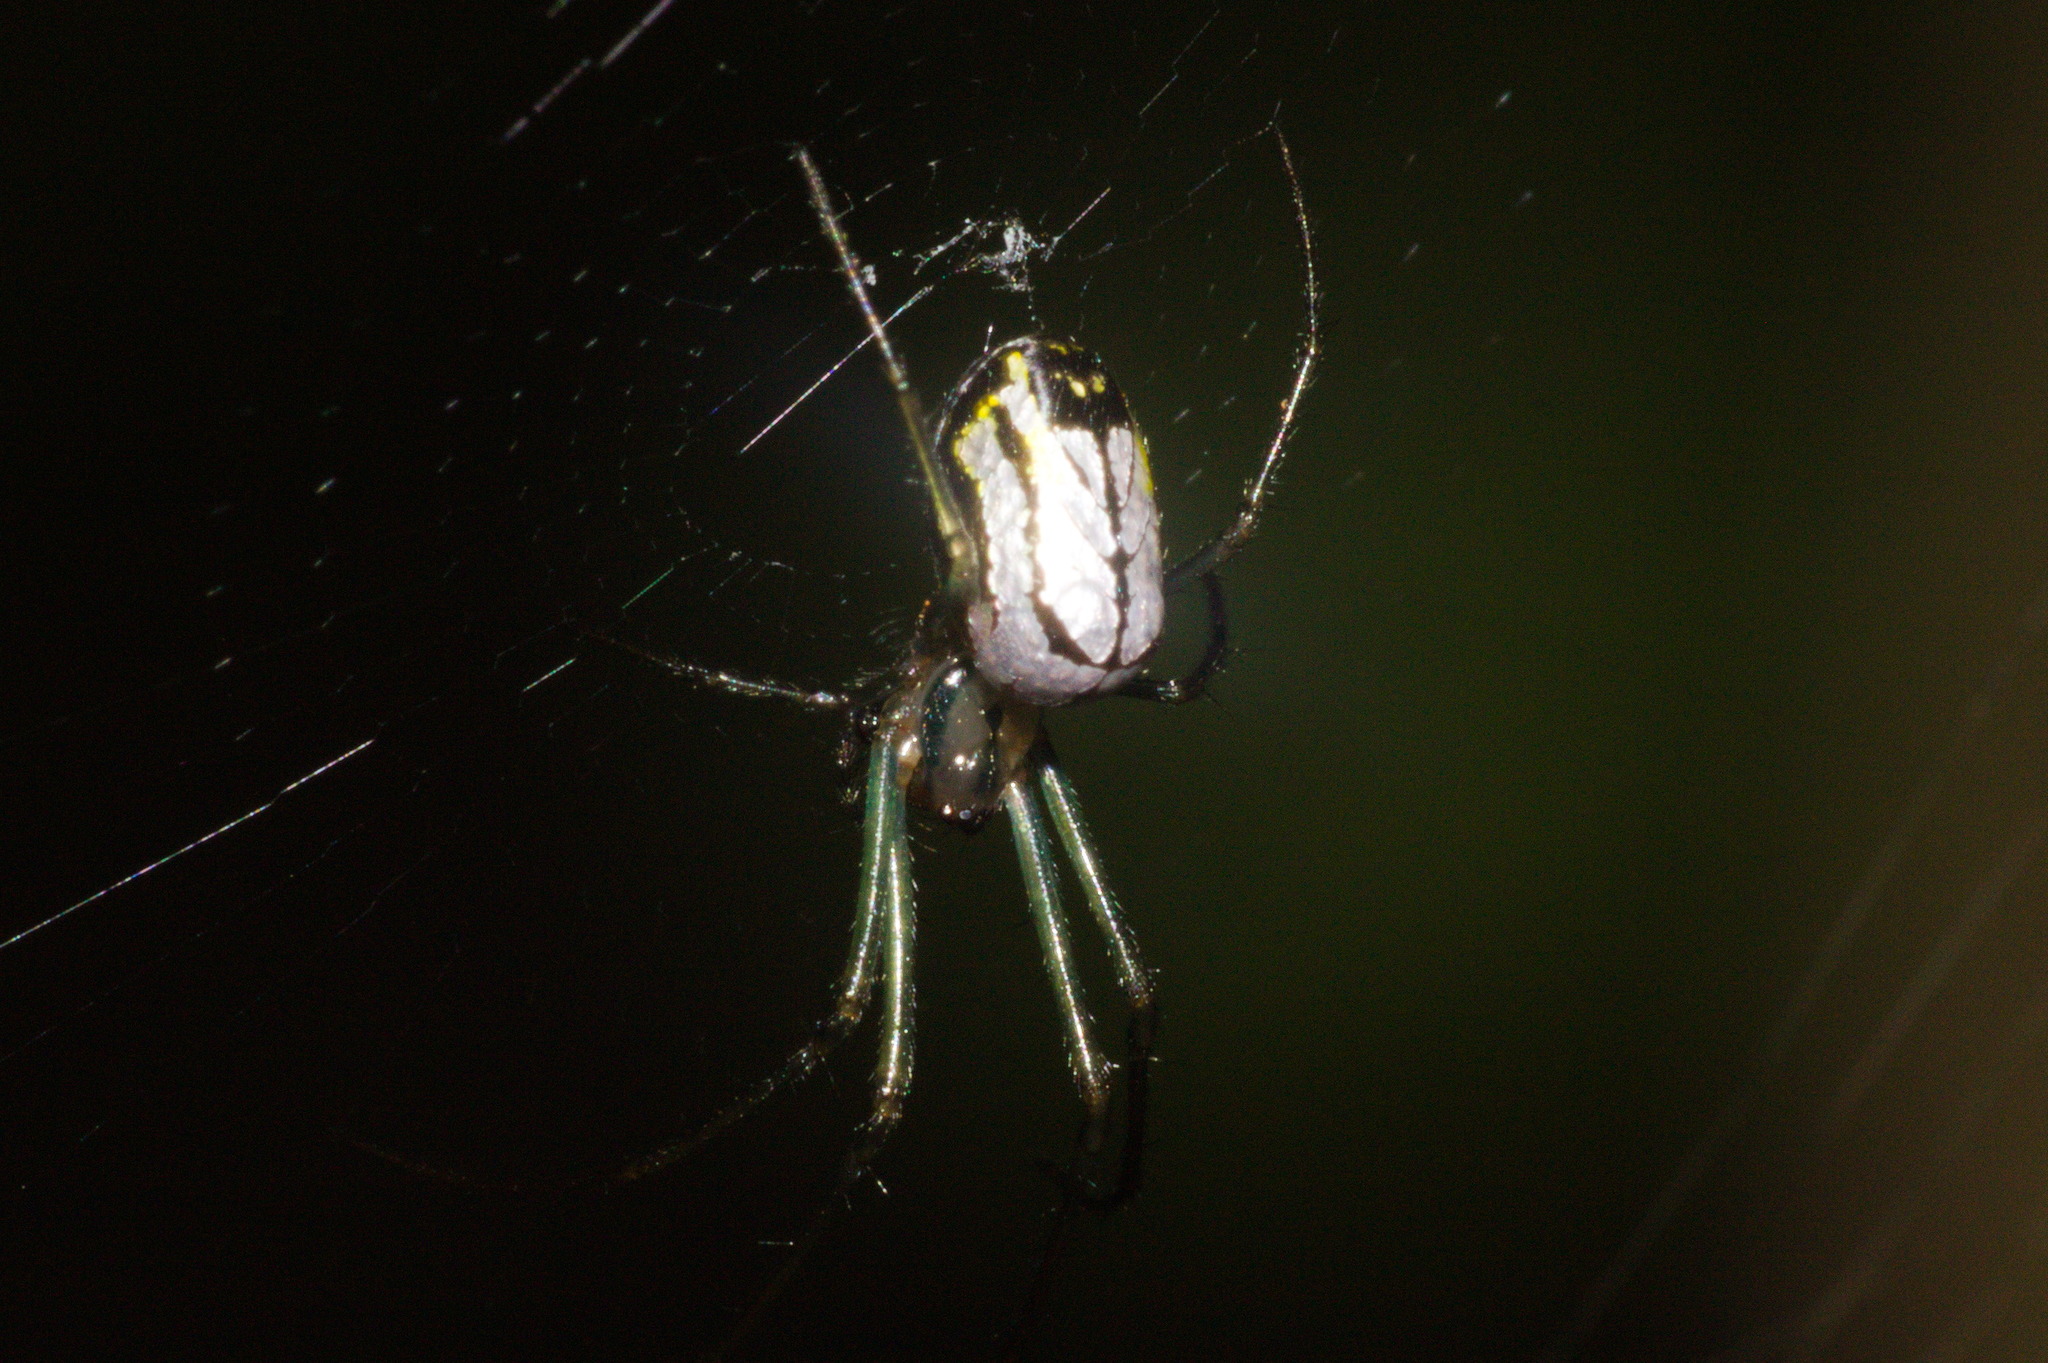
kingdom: Animalia
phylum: Arthropoda
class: Arachnida
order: Araneae
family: Tetragnathidae
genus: Leucauge
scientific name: Leucauge volupis
